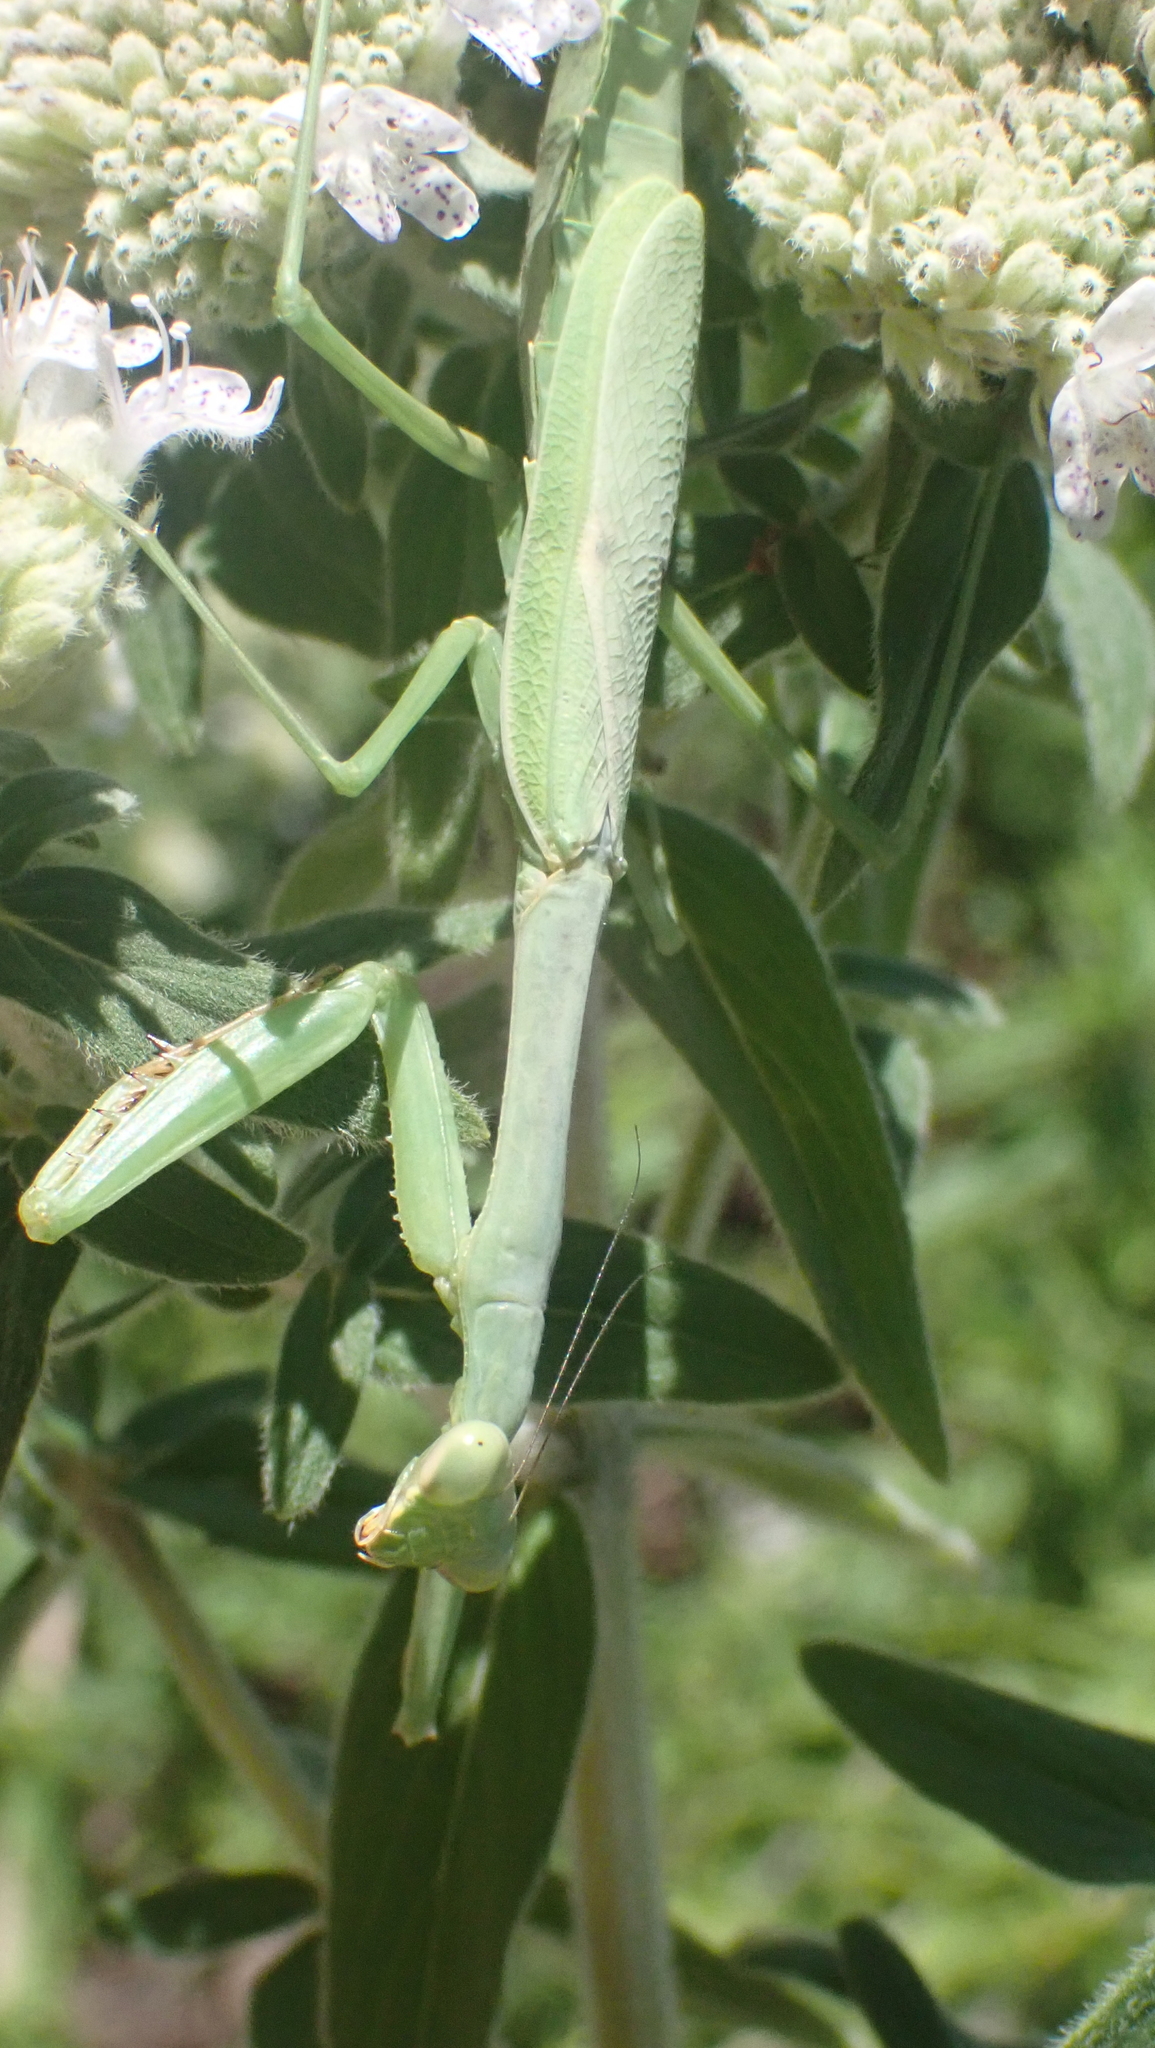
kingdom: Animalia
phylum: Arthropoda
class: Insecta
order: Mantodea
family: Mantidae
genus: Stagmomantis
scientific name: Stagmomantis carolina
